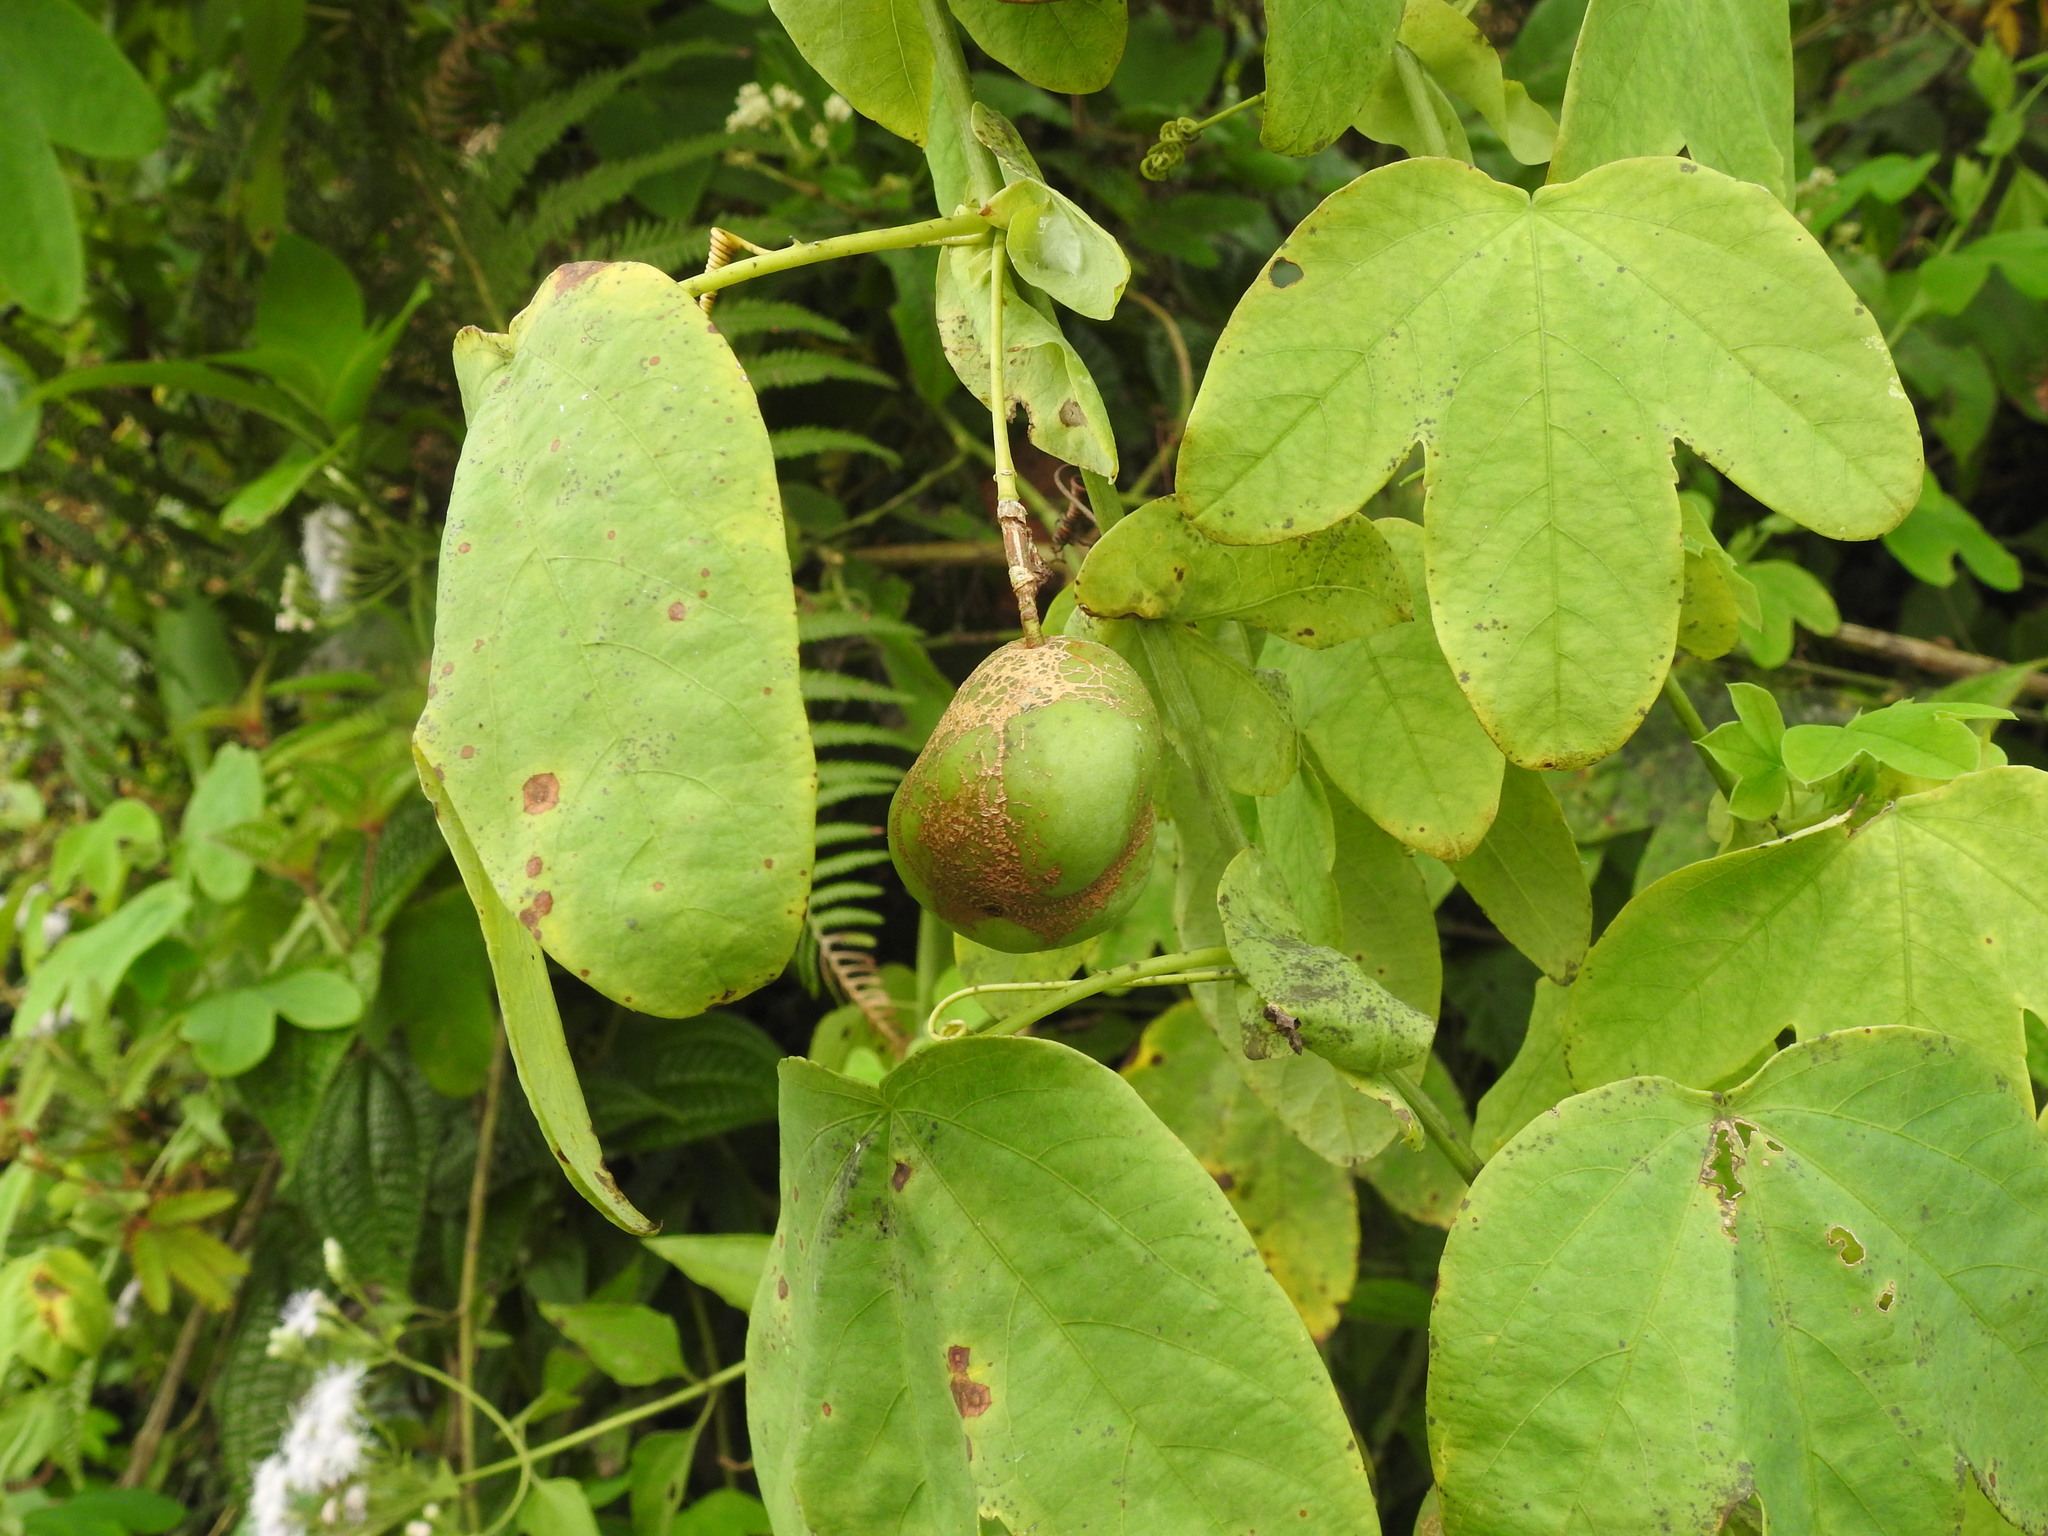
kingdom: Plantae
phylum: Tracheophyta
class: Magnoliopsida
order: Malpighiales
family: Passifloraceae
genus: Passiflora
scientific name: Passiflora subpeltata
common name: White passionflower
